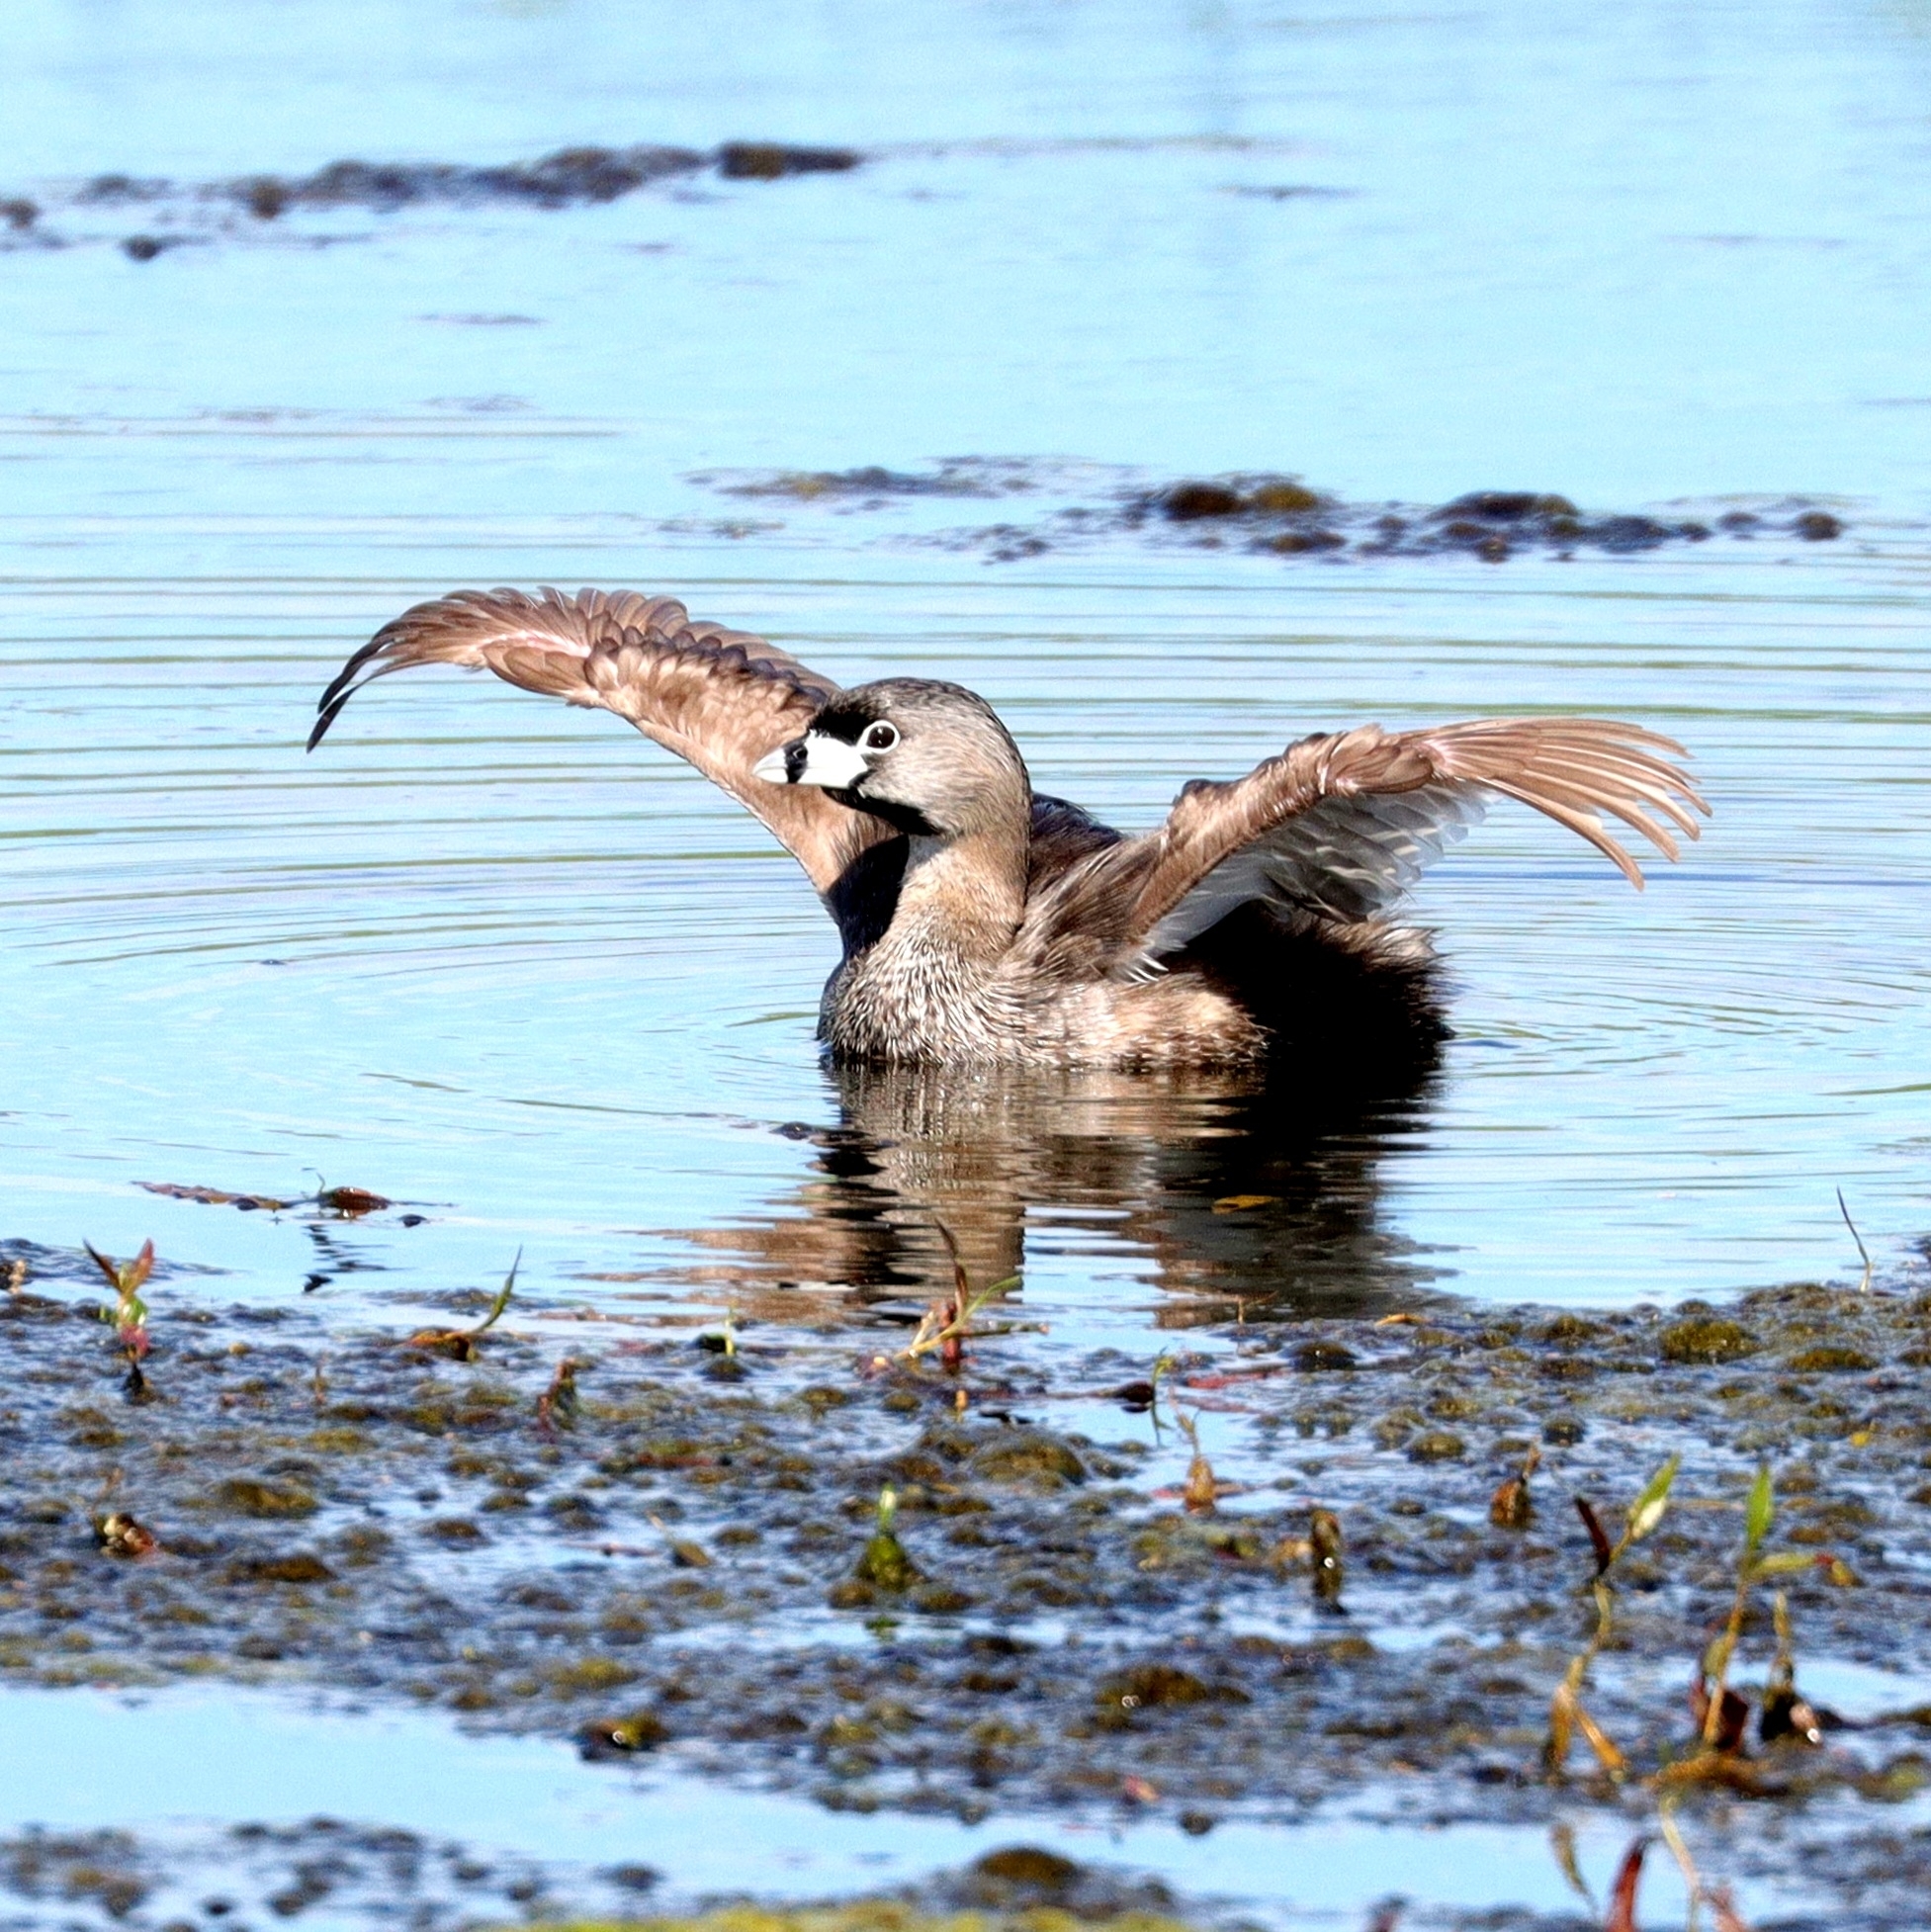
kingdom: Animalia
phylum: Chordata
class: Aves
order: Podicipediformes
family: Podicipedidae
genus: Podilymbus
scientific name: Podilymbus podiceps
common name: Pied-billed grebe
